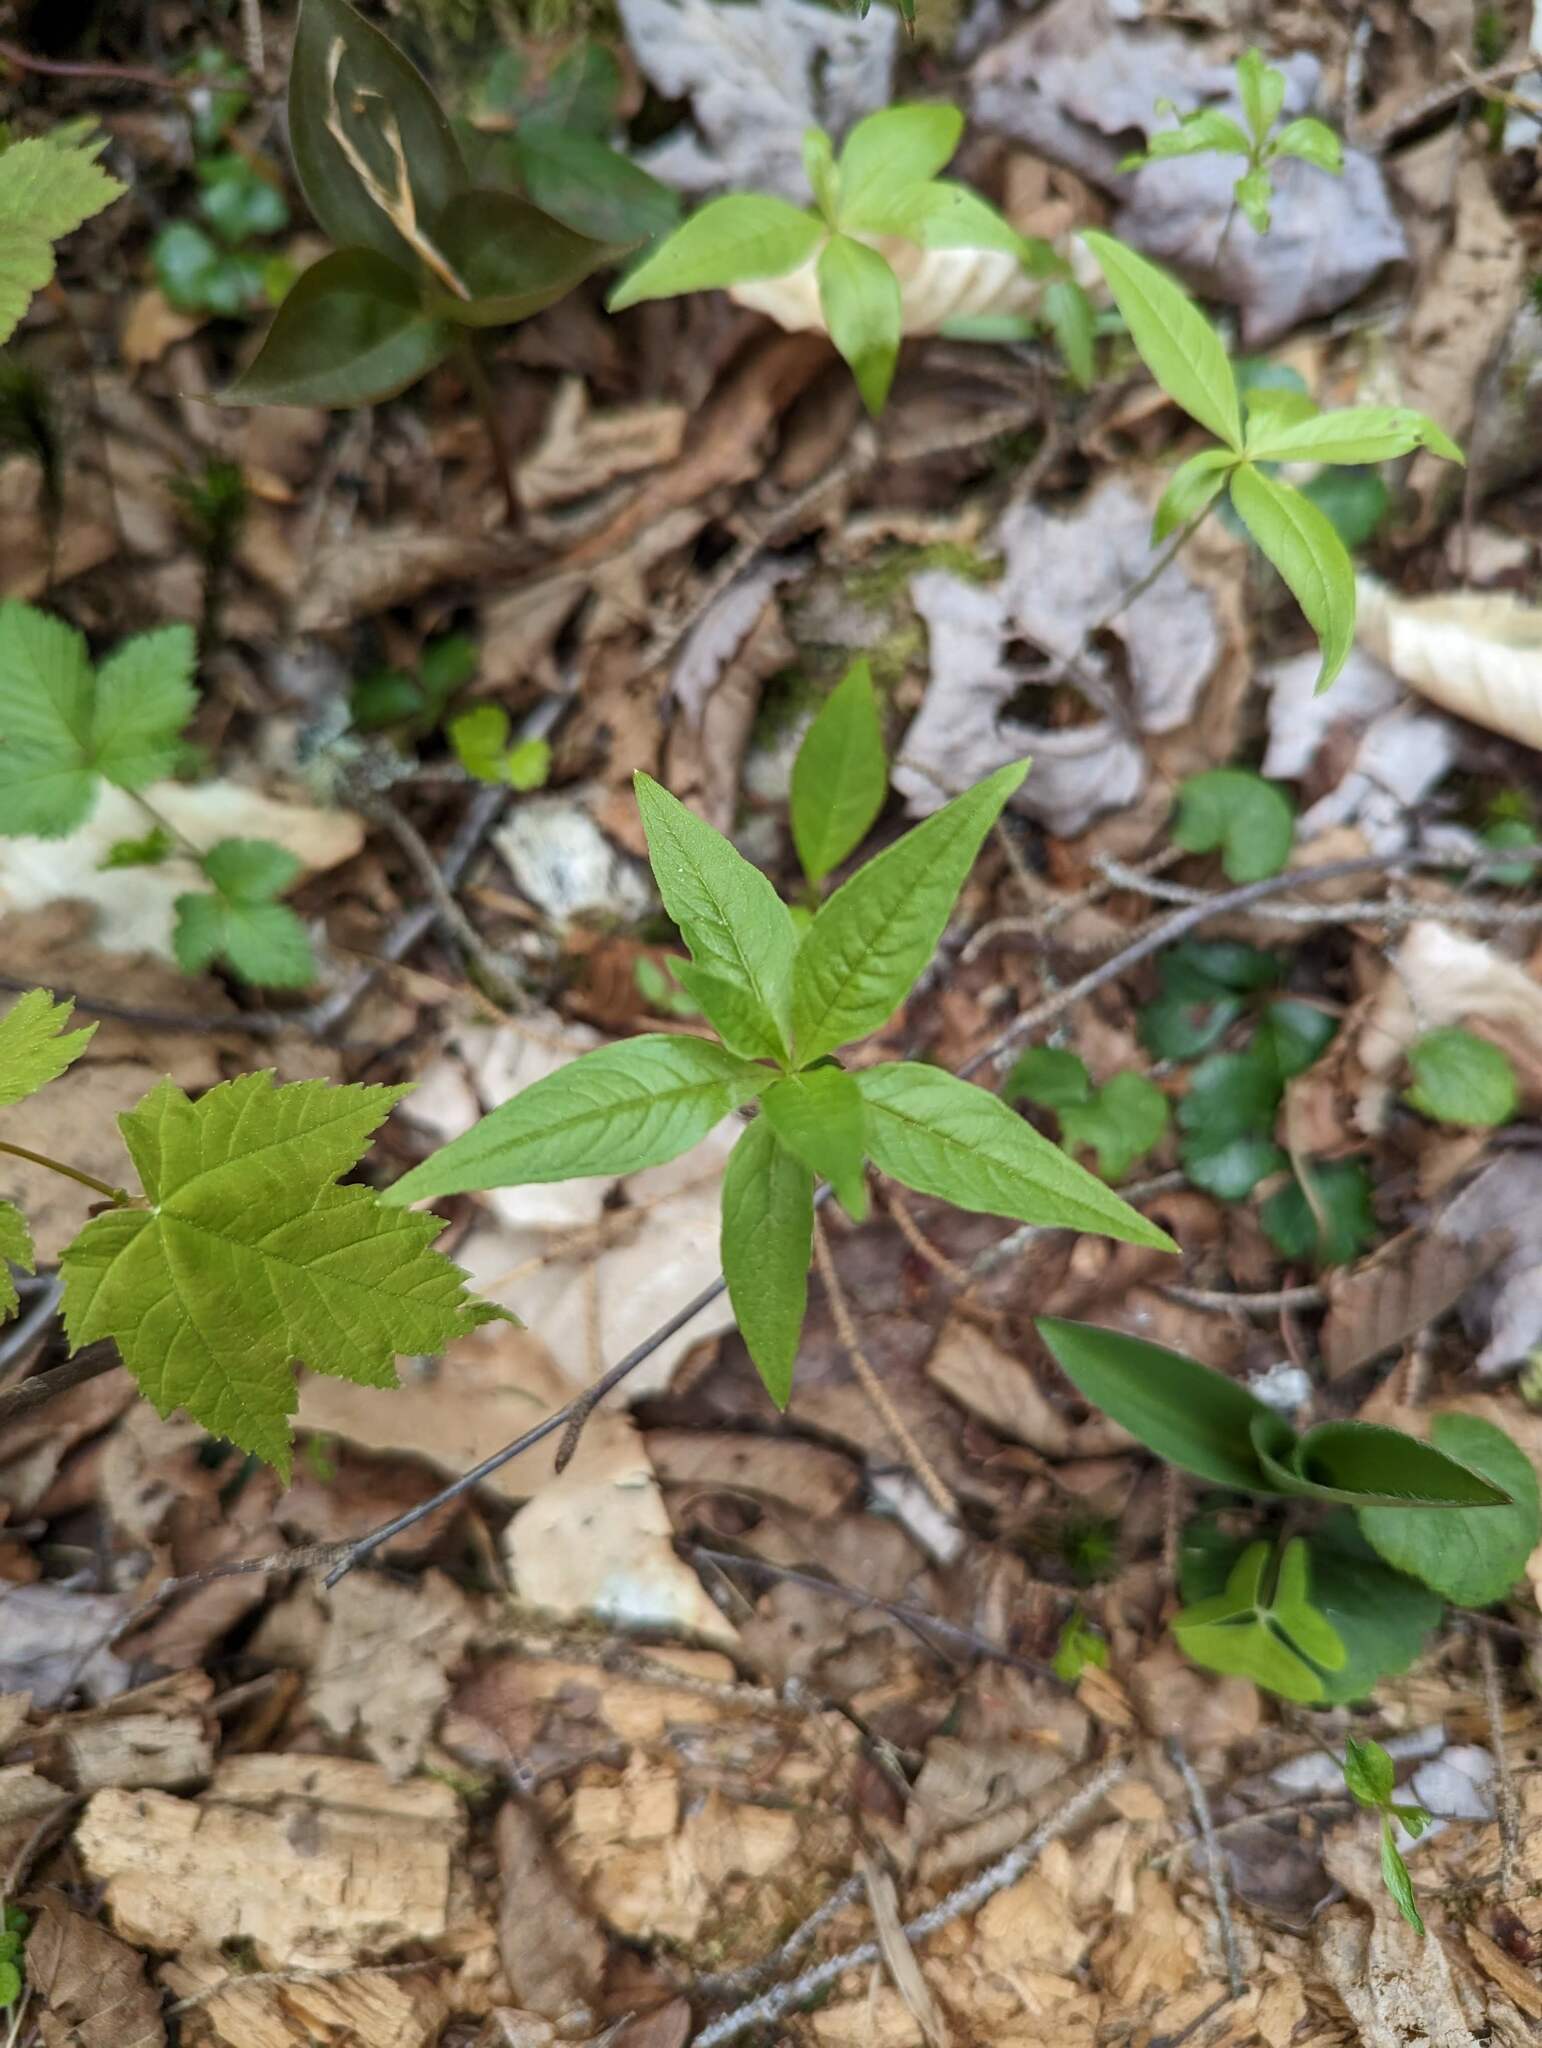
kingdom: Plantae
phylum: Tracheophyta
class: Magnoliopsida
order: Ericales
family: Primulaceae
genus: Lysimachia
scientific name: Lysimachia borealis
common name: American starflower
